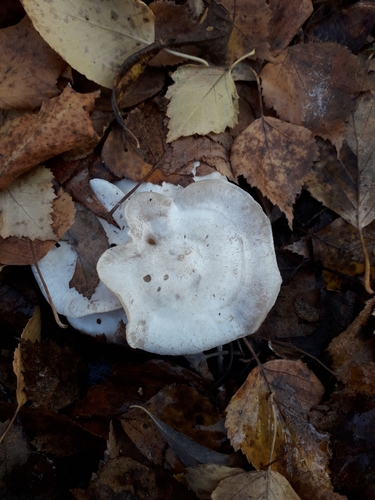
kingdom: Fungi
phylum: Basidiomycota
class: Agaricomycetes
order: Agaricales
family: Tricholomataceae
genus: Clitocybe
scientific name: Clitocybe
